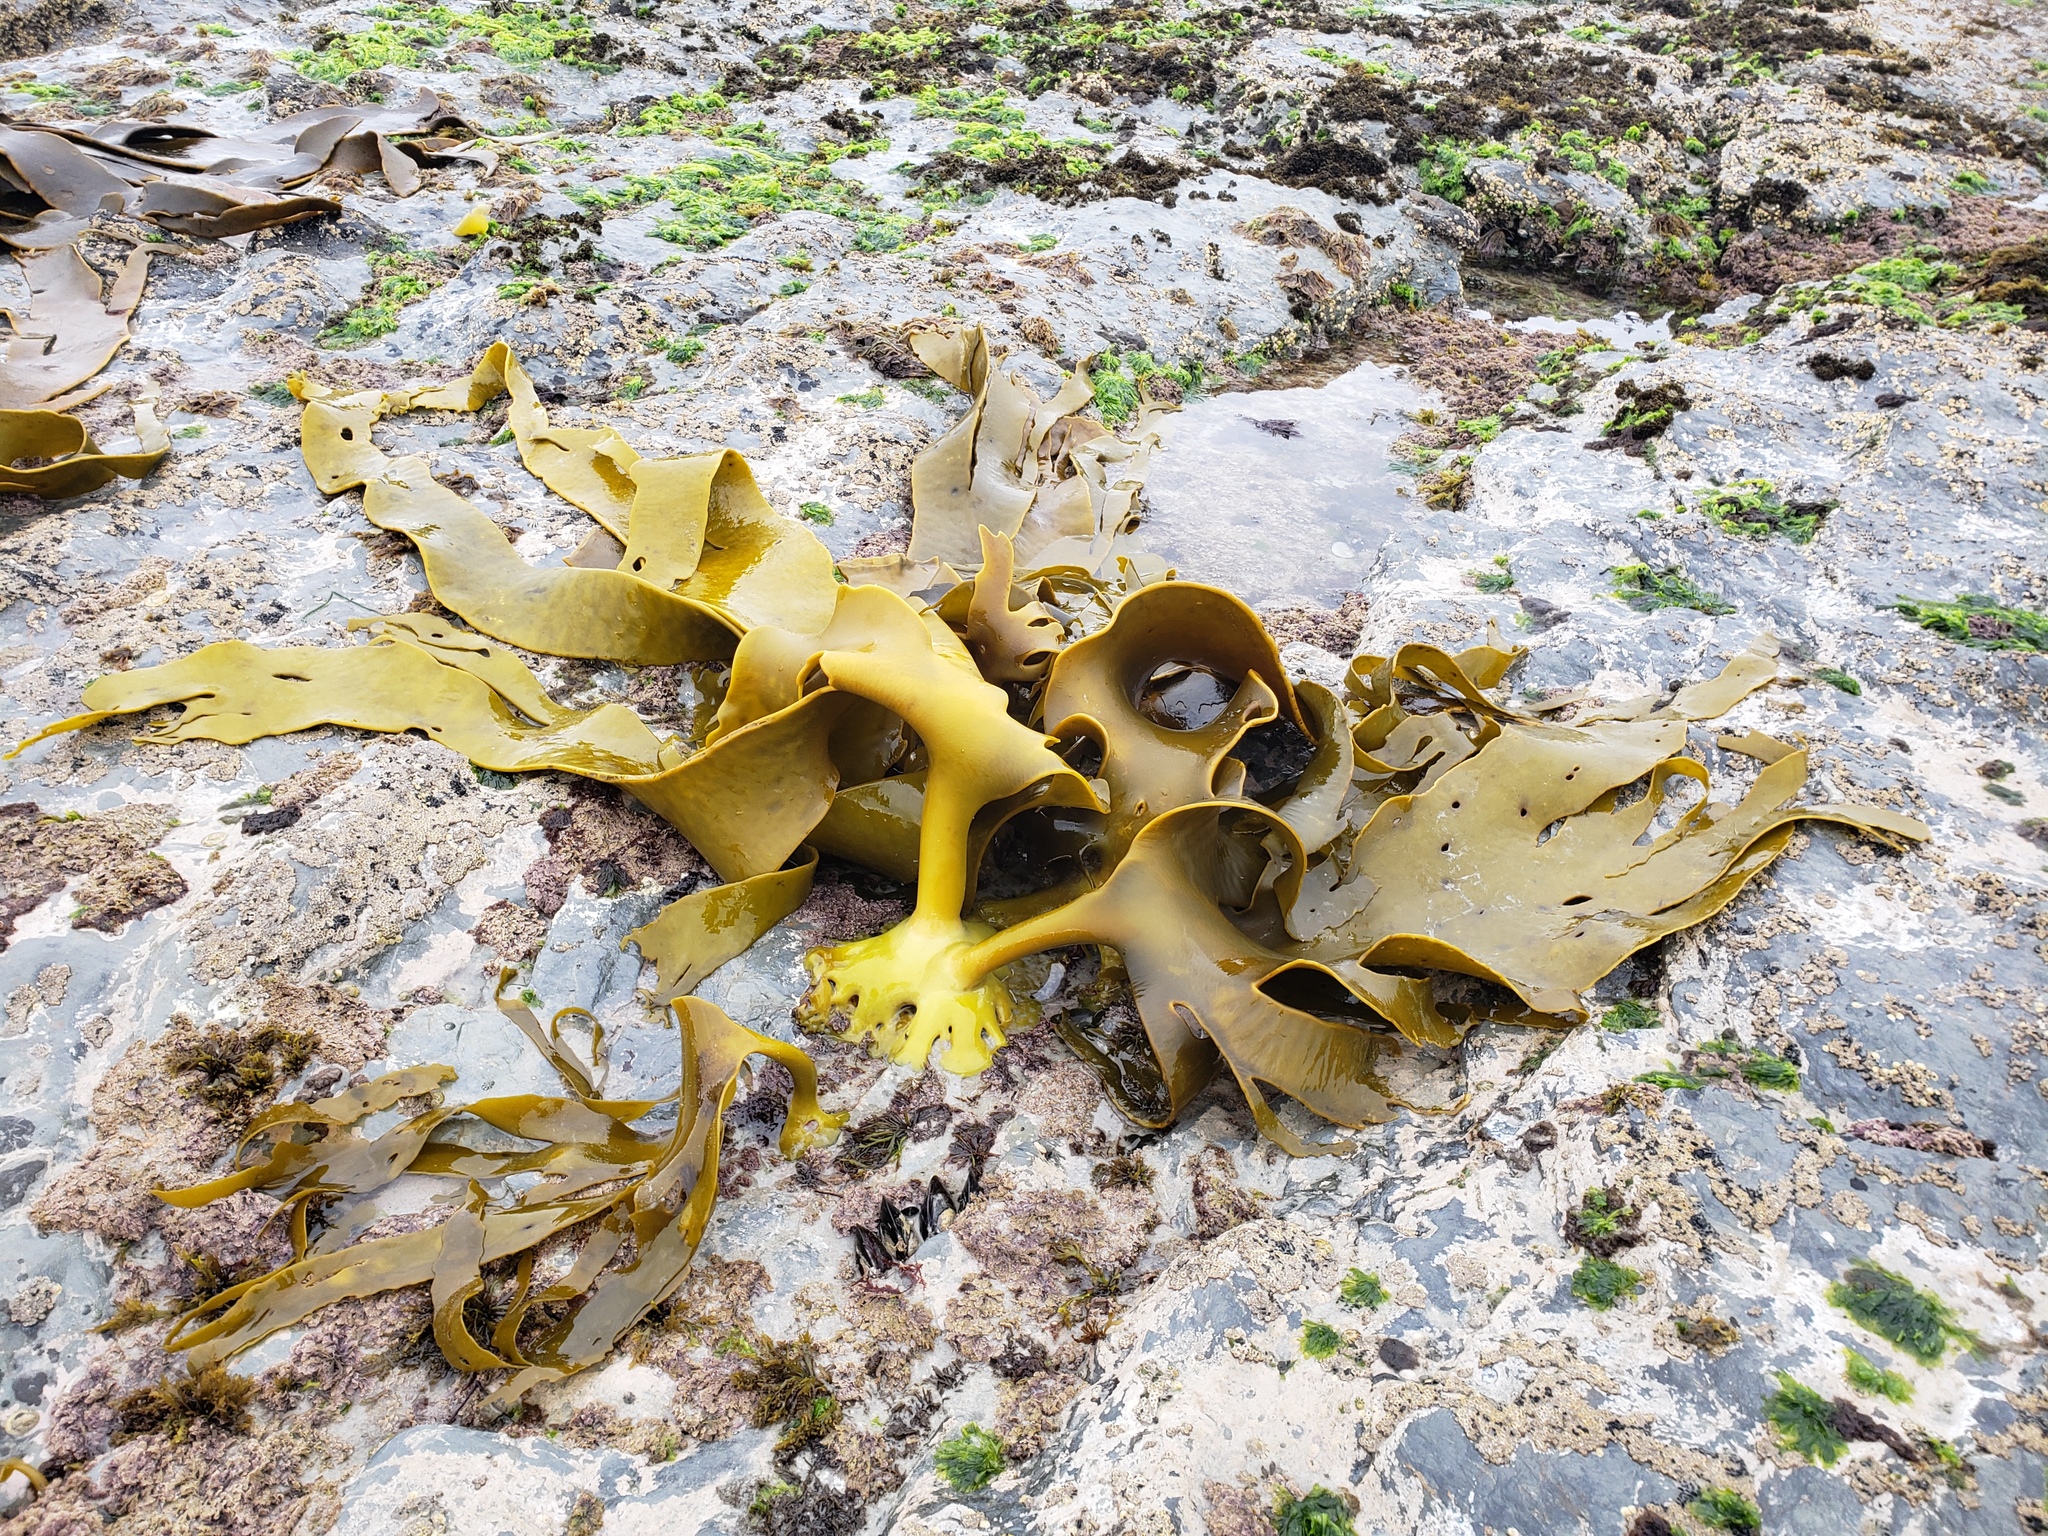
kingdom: Chromista
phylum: Ochrophyta
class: Phaeophyceae
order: Fucales
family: Durvillaeaceae
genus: Durvillaea
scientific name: Durvillaea poha
